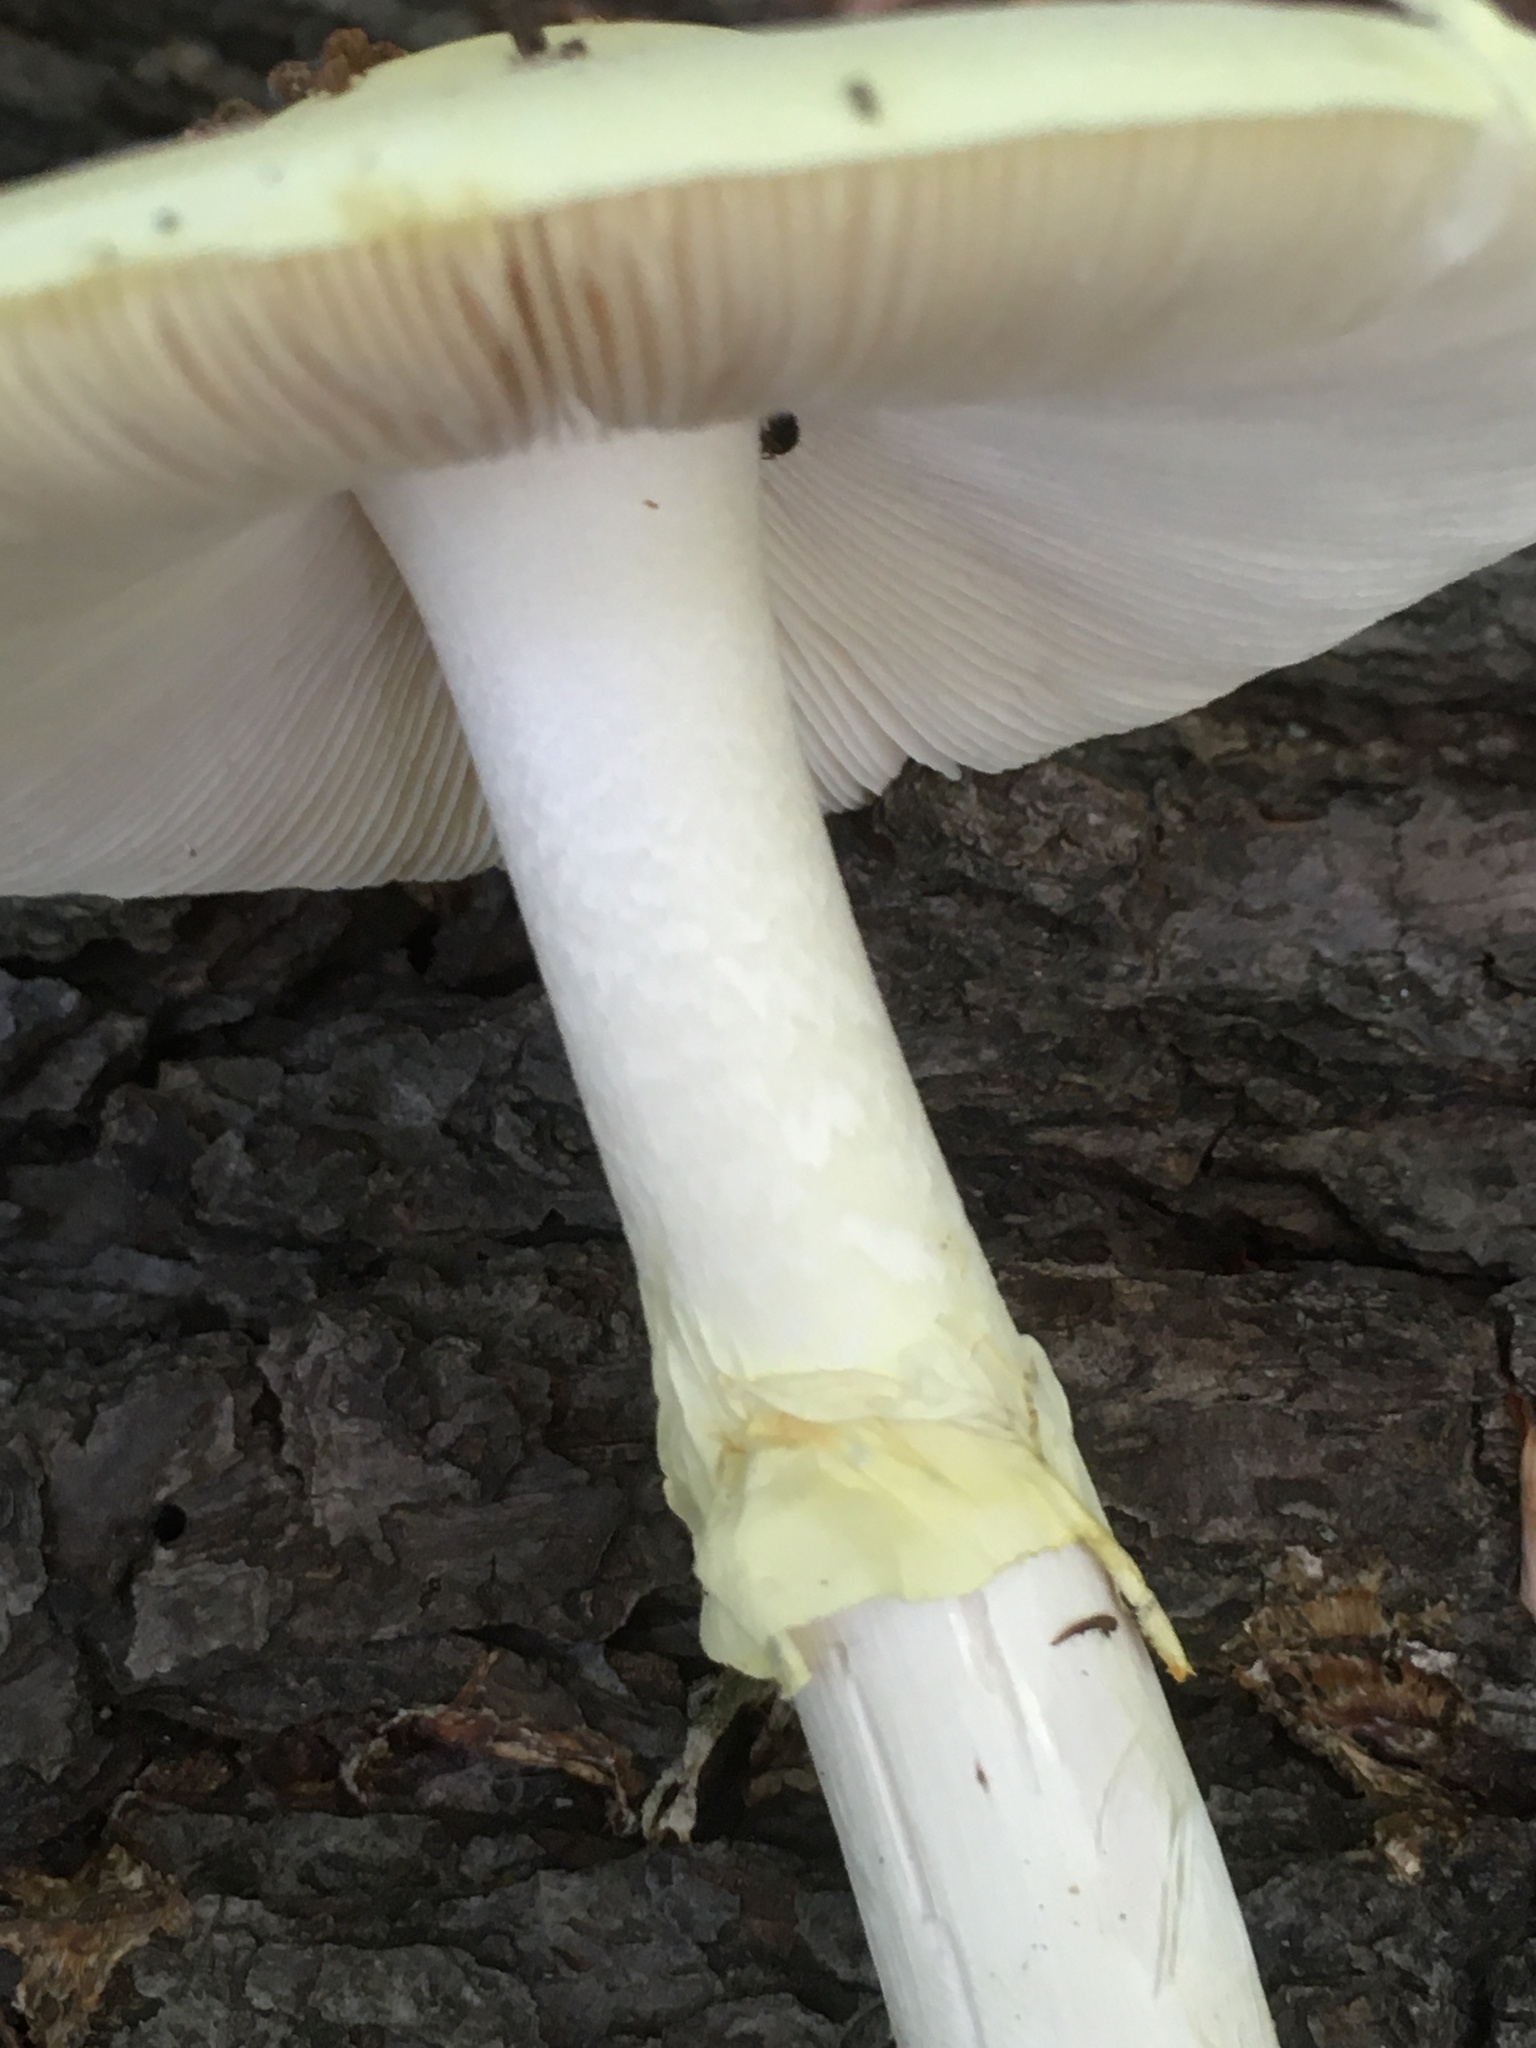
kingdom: Fungi
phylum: Basidiomycota
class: Agaricomycetes
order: Agaricales
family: Amanitaceae
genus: Amanita
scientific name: Amanita citrina
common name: False death-cap
